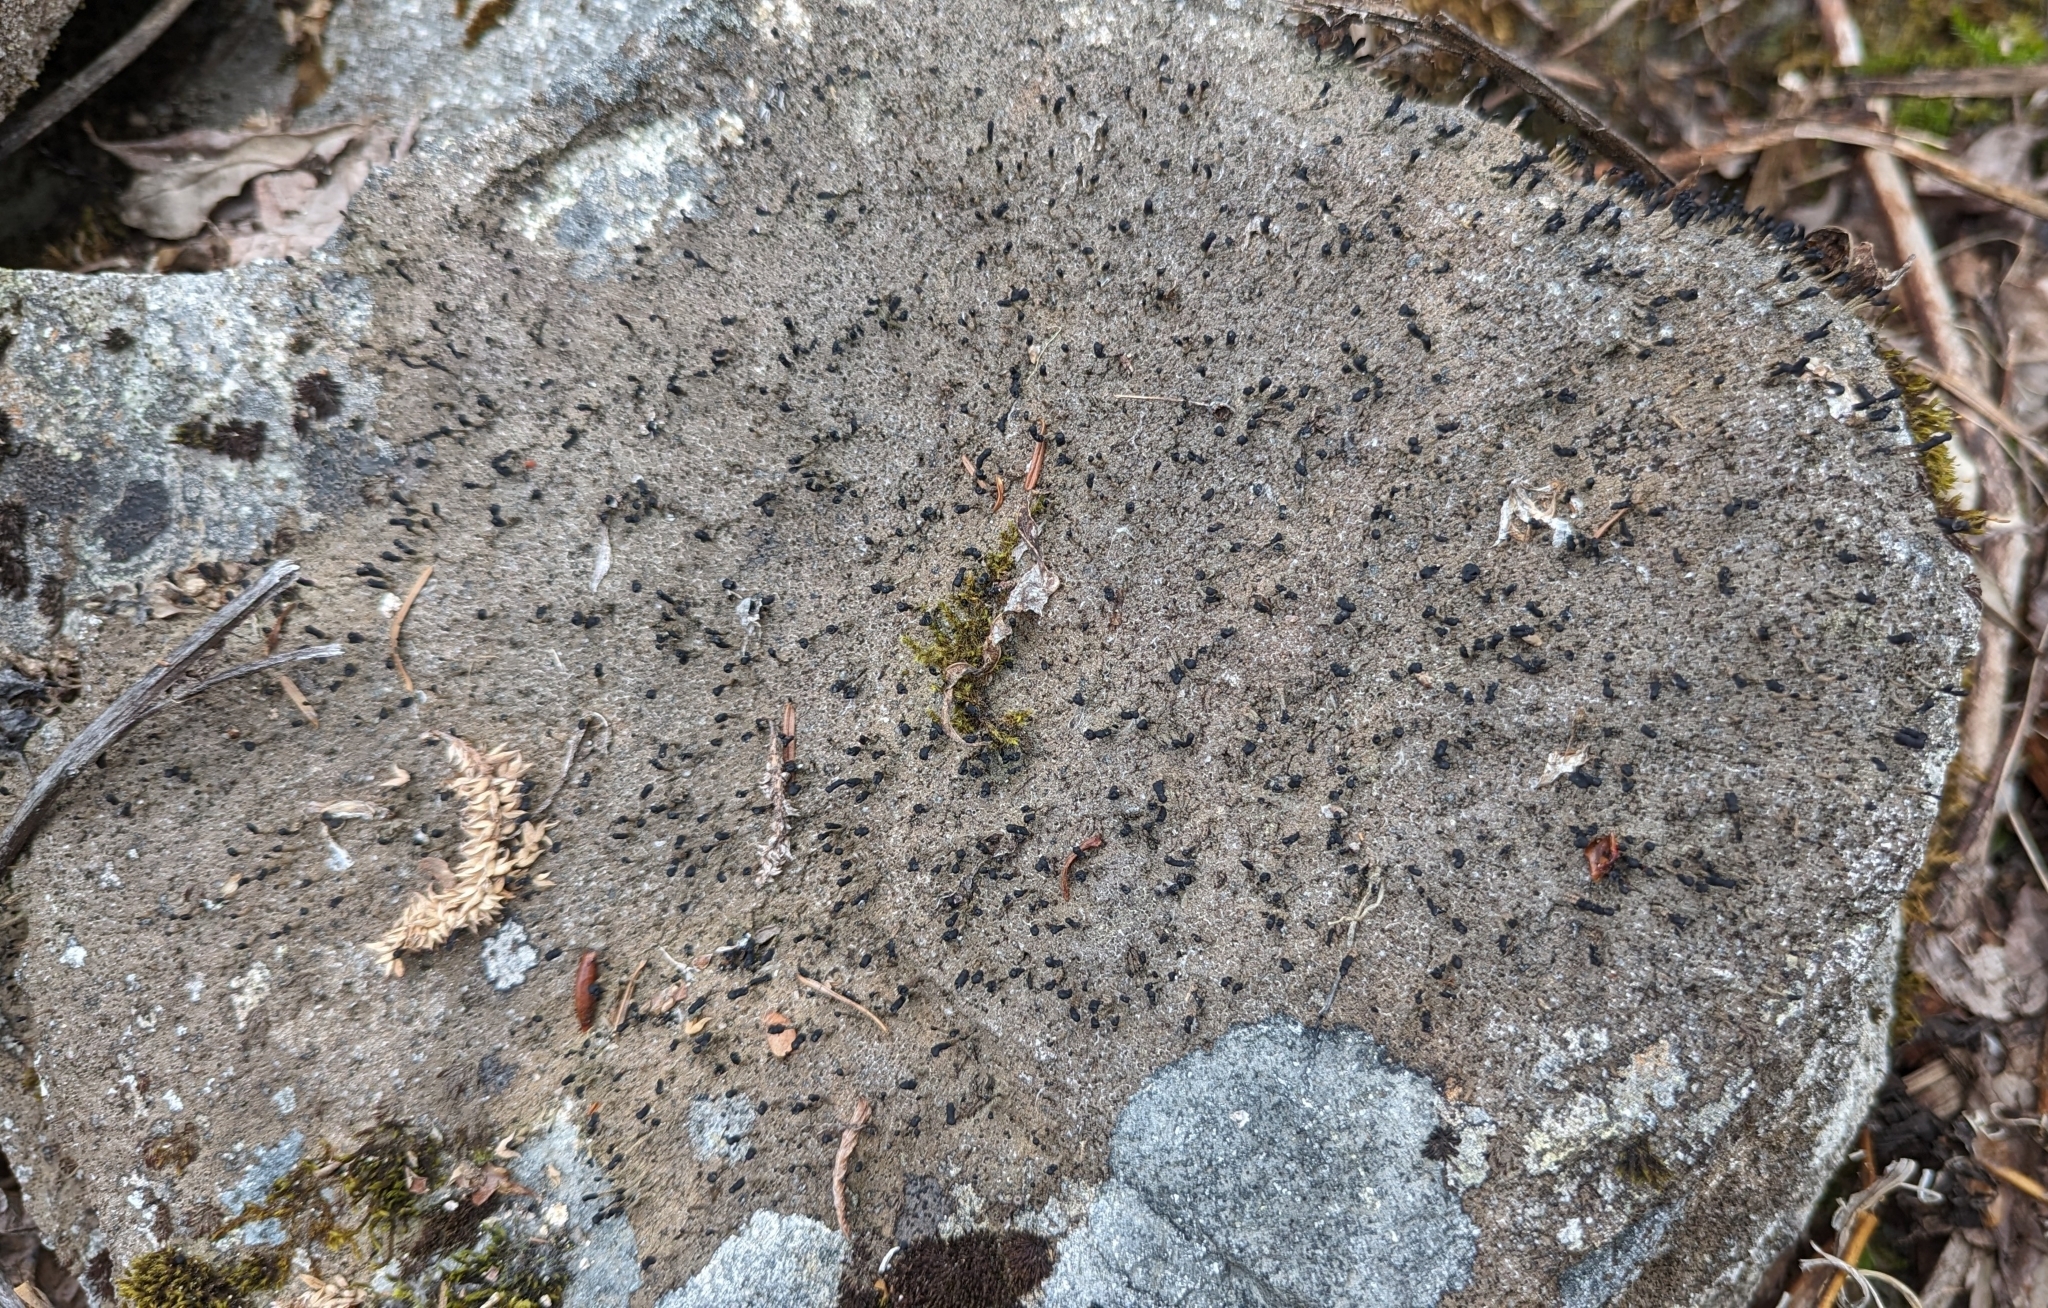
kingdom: Fungi
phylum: Ascomycota
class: Lecanoromycetes
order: Lecanorales
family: Cladoniaceae
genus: Pilophorus
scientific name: Pilophorus clavatus
